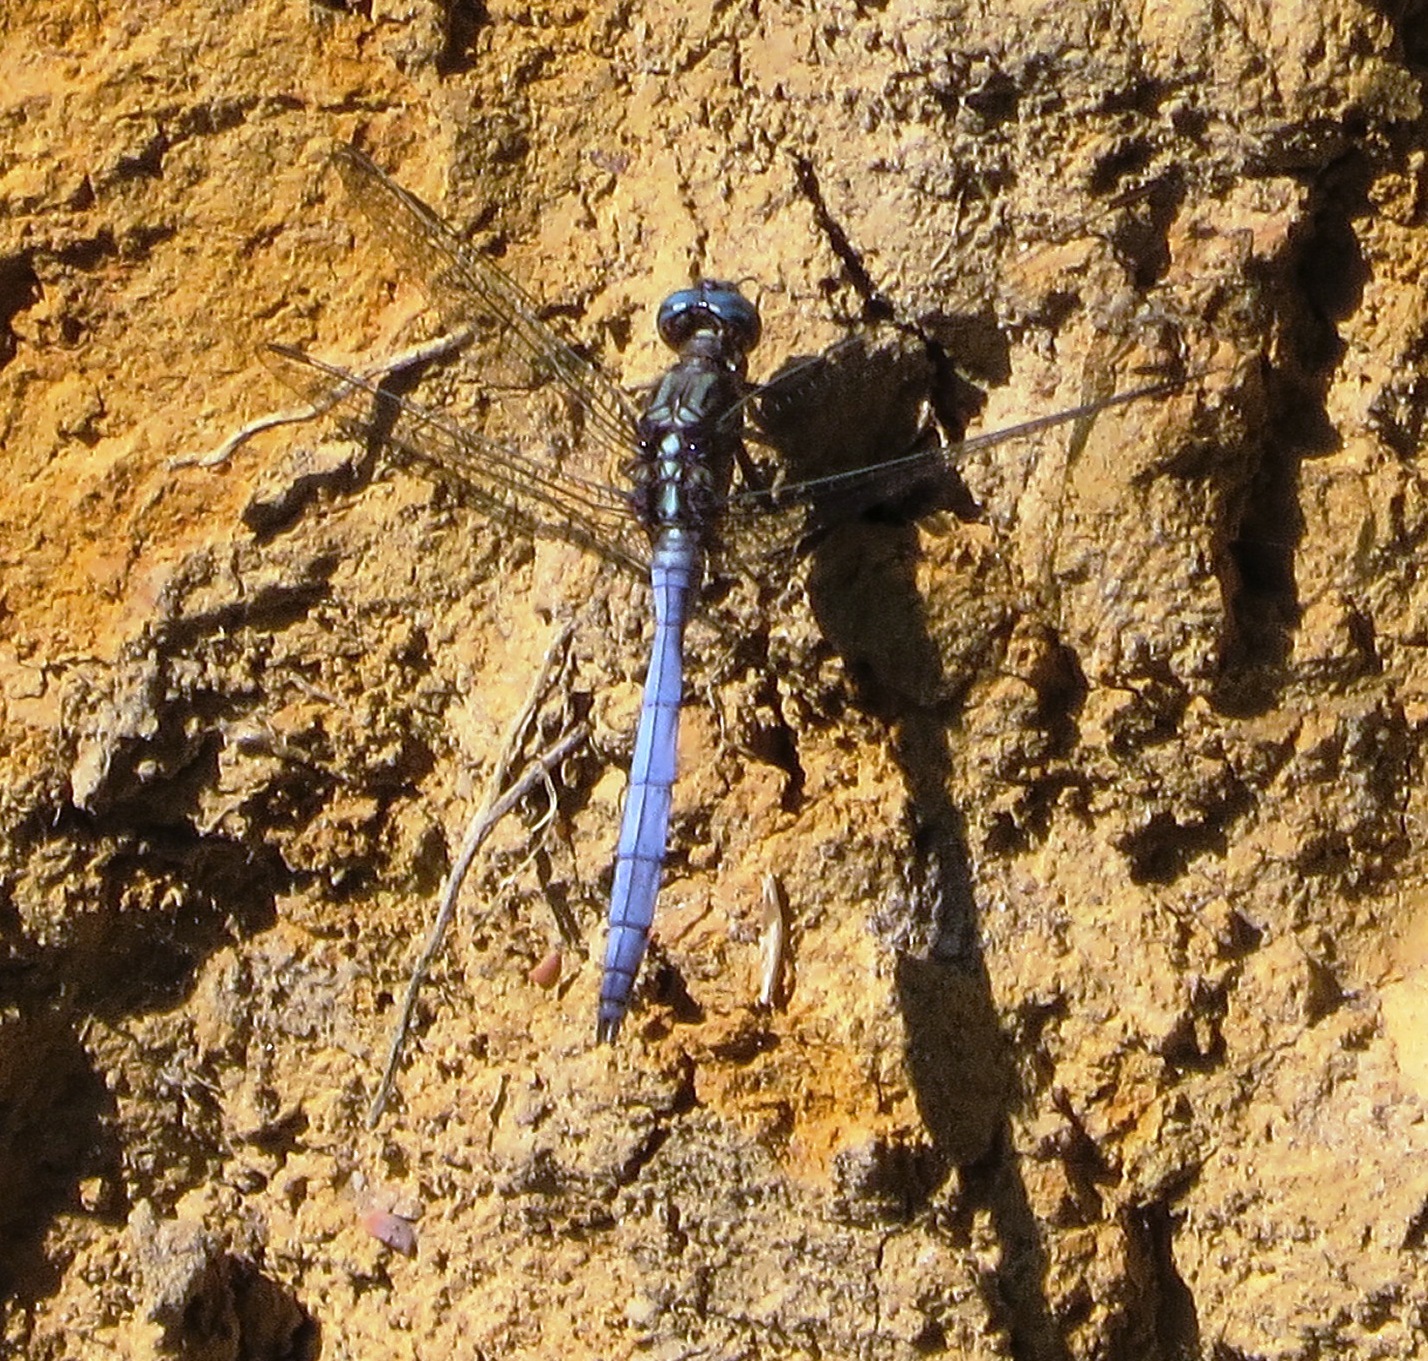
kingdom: Animalia
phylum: Arthropoda
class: Insecta
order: Odonata
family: Libellulidae
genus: Orthetrum
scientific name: Orthetrum julia
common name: Julia skimmer
